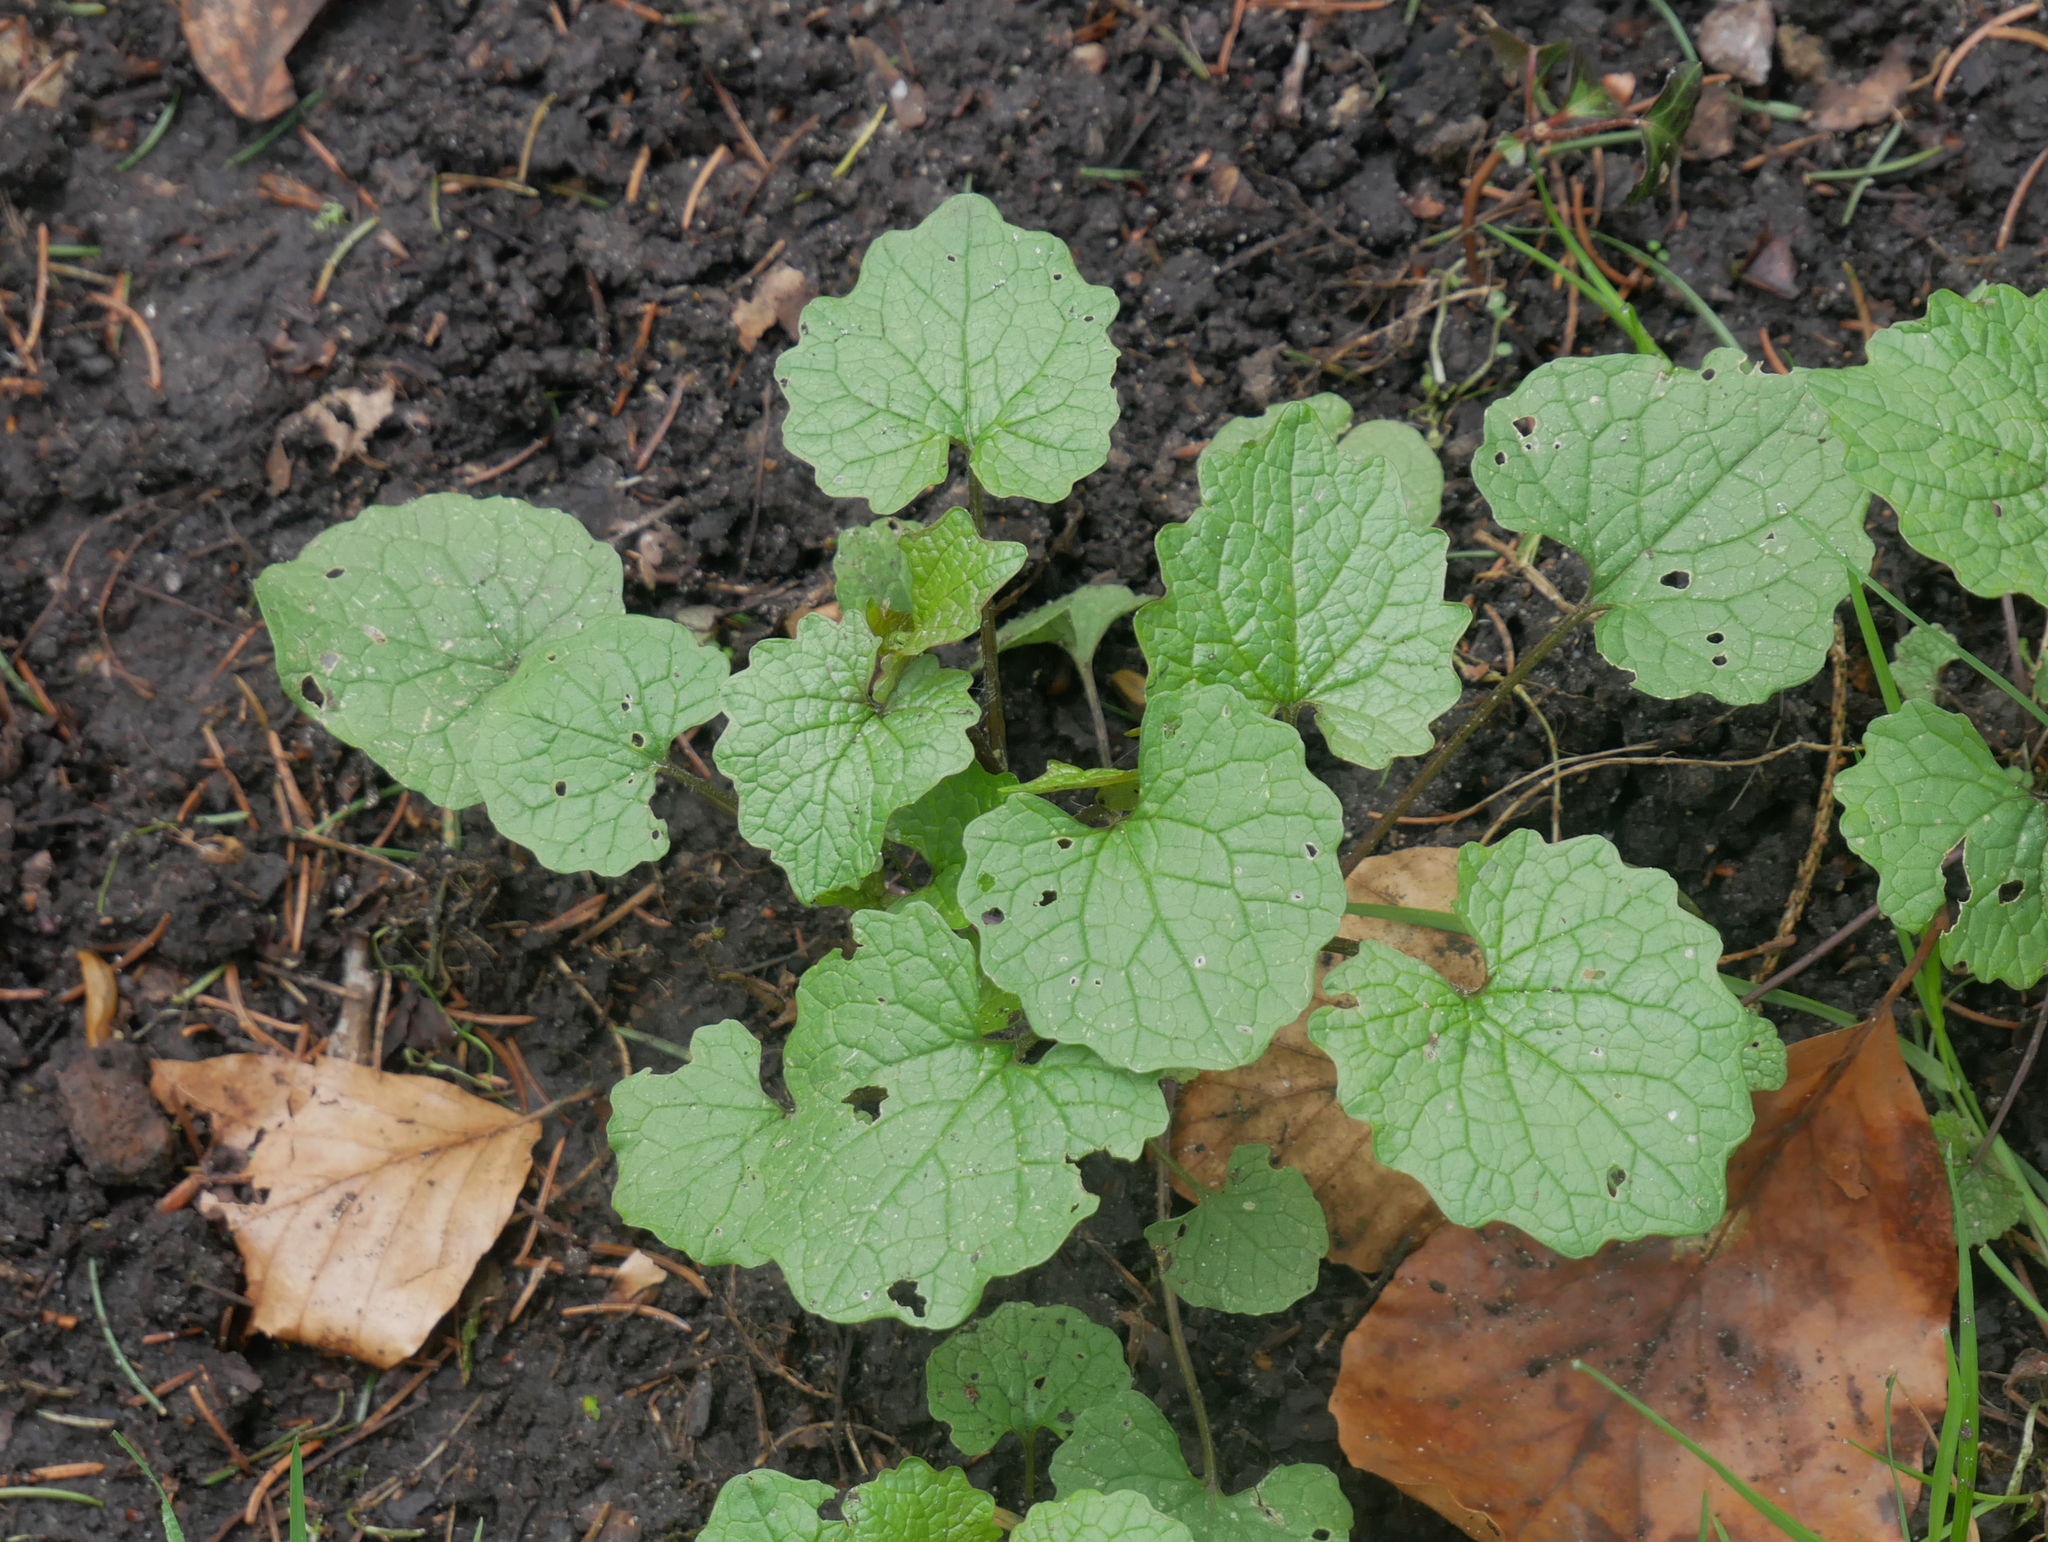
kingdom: Plantae
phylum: Tracheophyta
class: Magnoliopsida
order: Brassicales
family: Brassicaceae
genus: Alliaria
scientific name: Alliaria petiolata
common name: Garlic mustard
